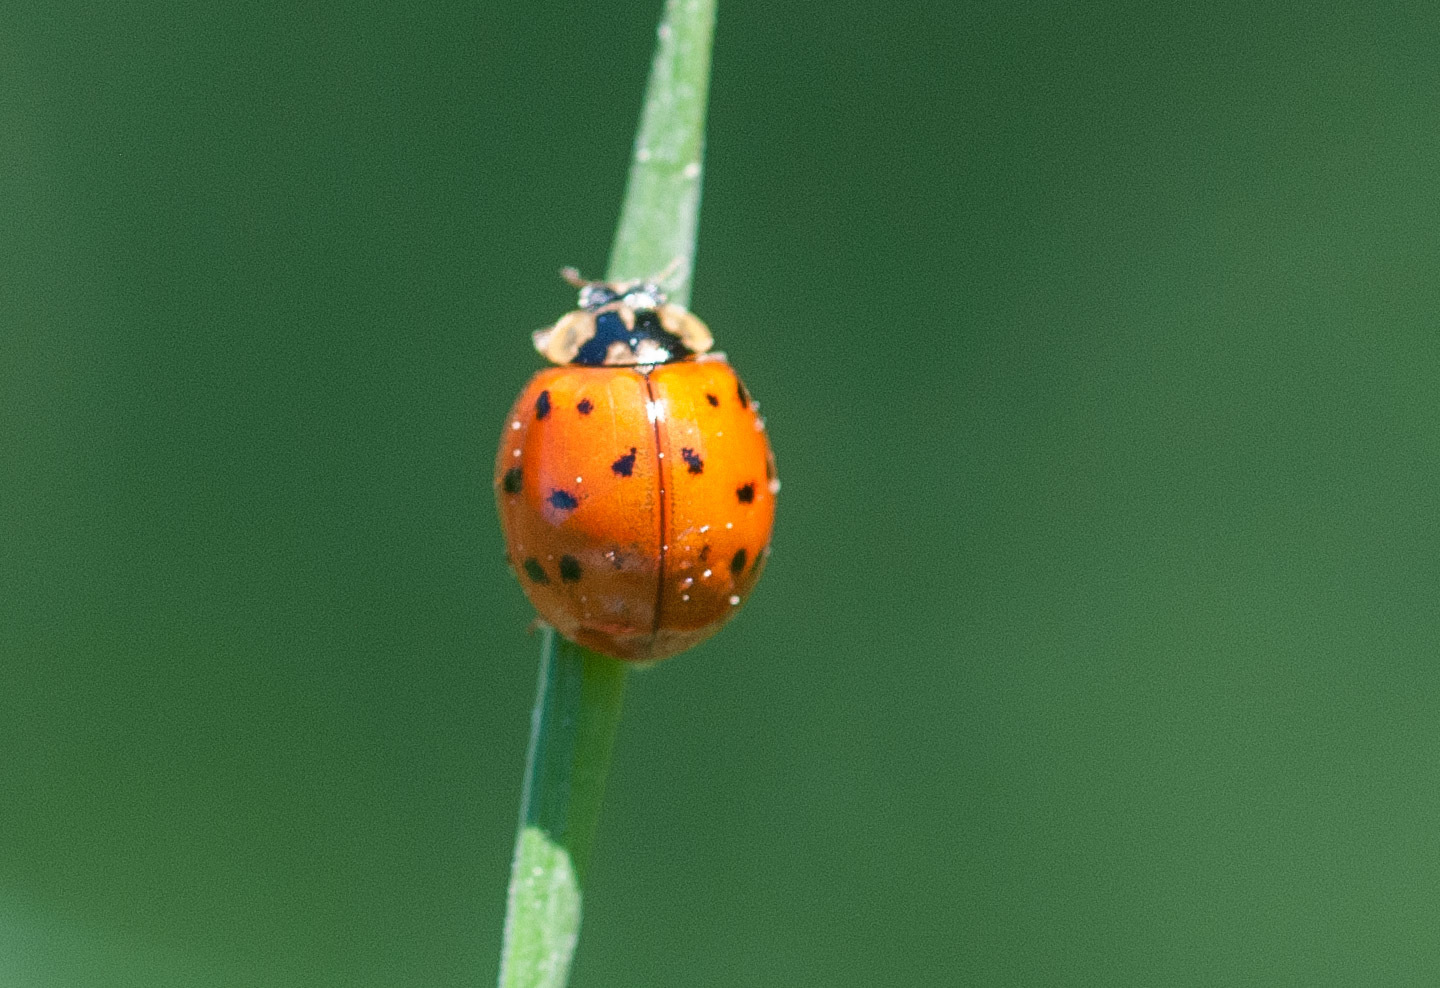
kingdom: Animalia
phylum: Arthropoda
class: Insecta
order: Coleoptera
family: Coccinellidae
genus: Harmonia
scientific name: Harmonia axyridis
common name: Harlequin ladybird
